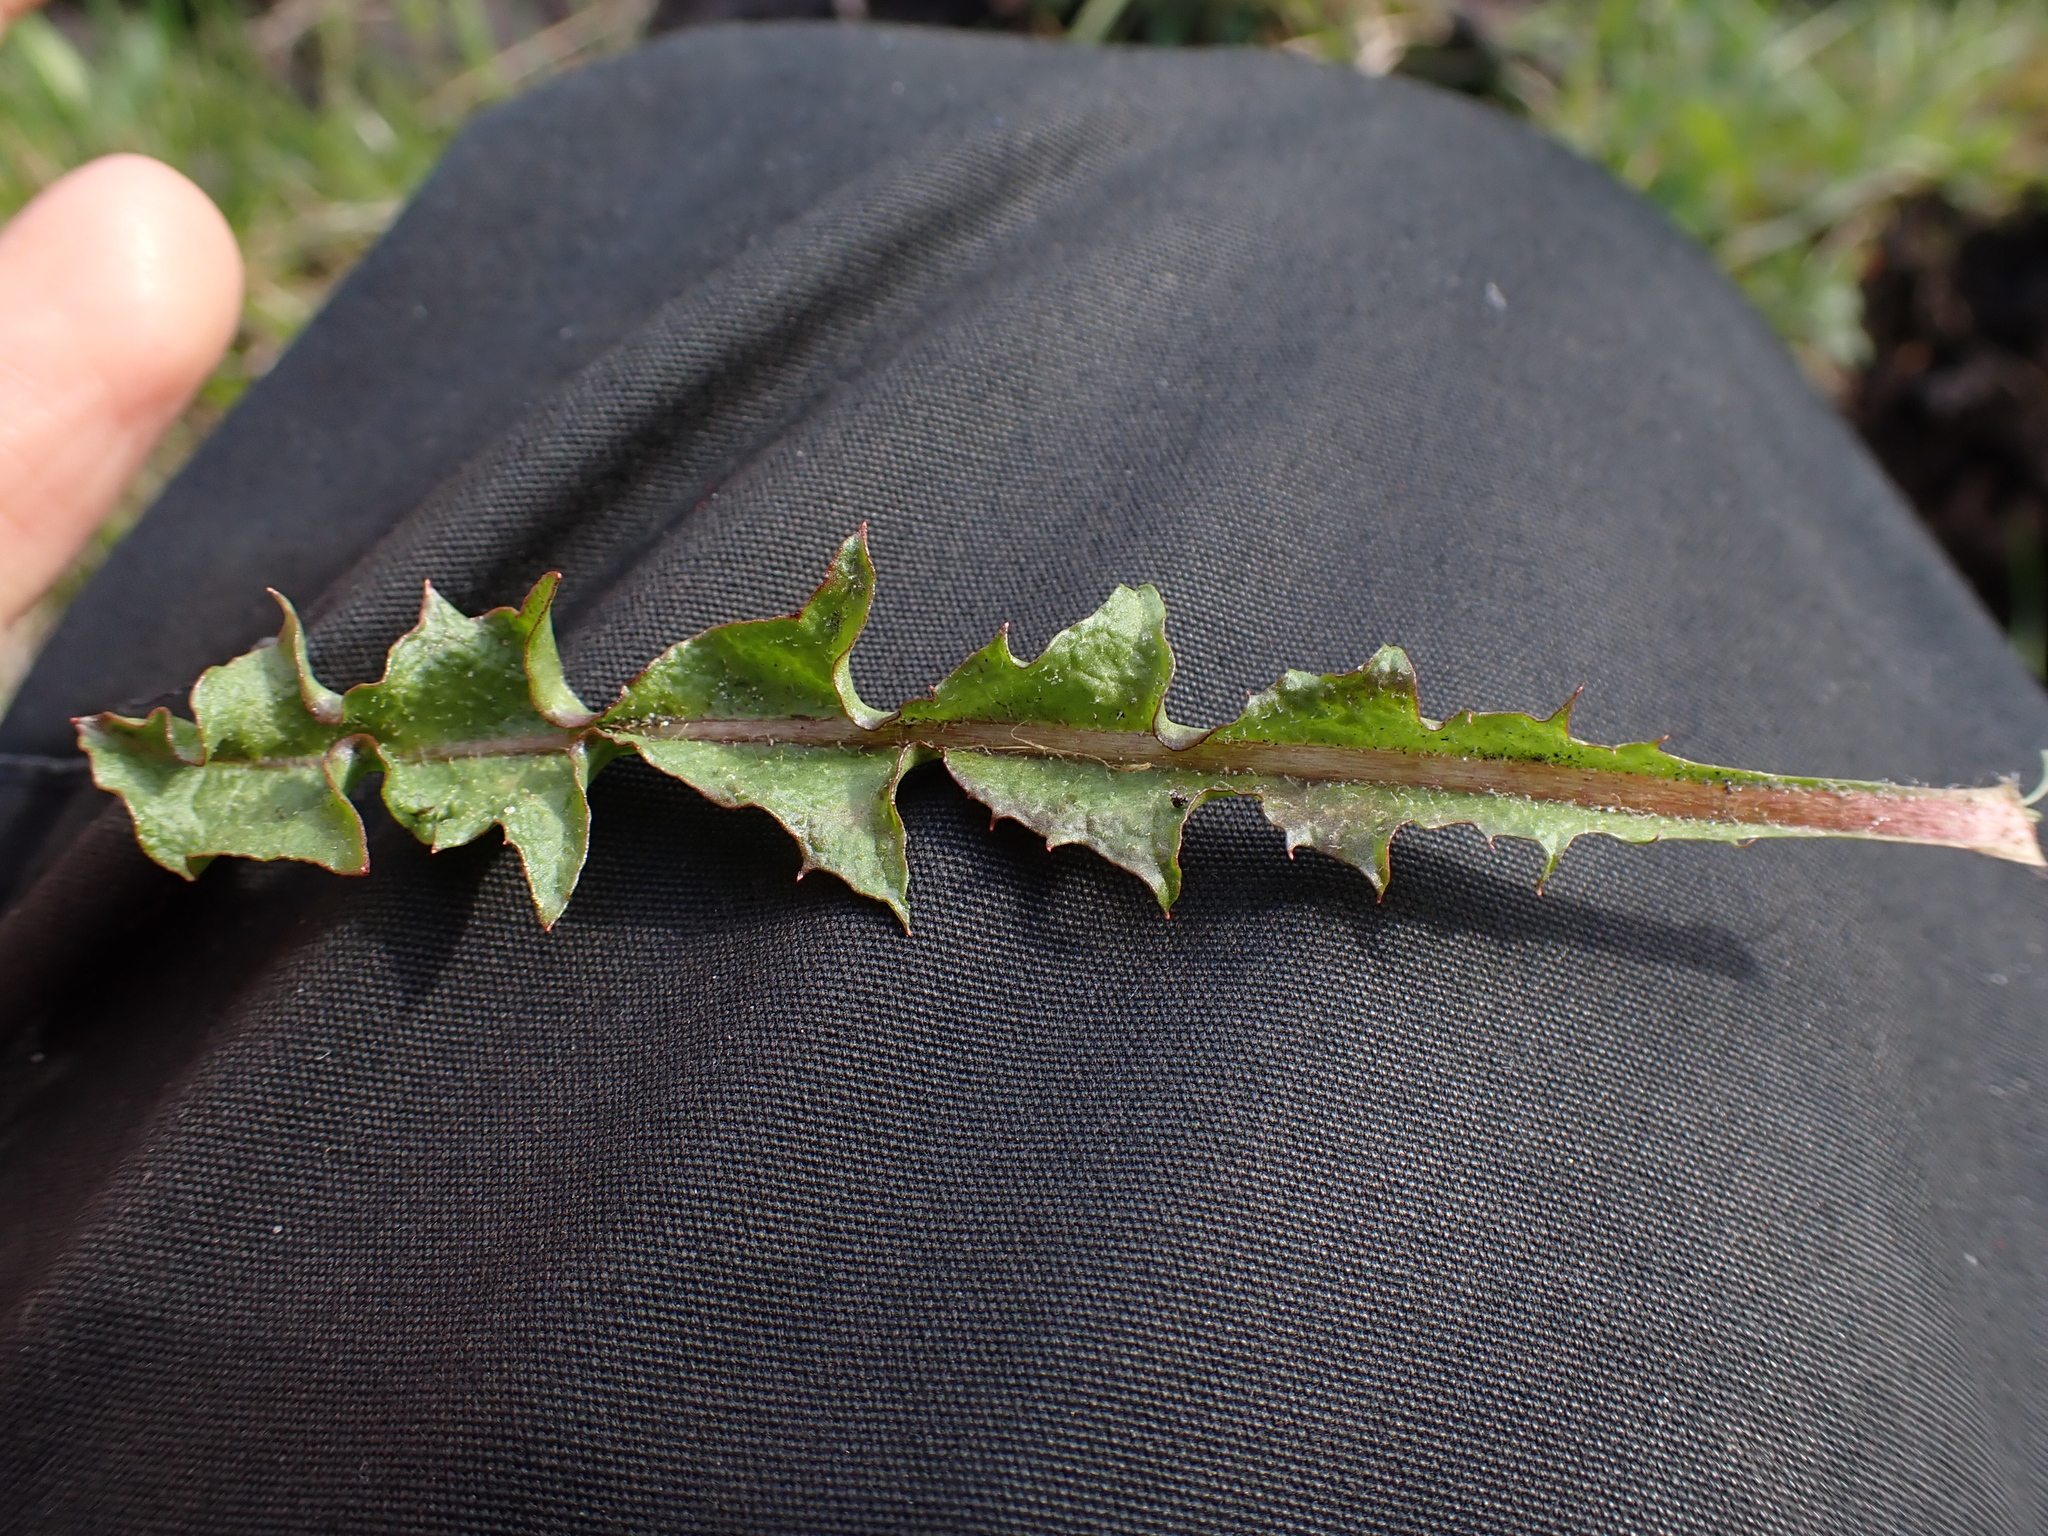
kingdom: Plantae
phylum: Tracheophyta
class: Magnoliopsida
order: Asterales
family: Asteraceae
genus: Taraxacum
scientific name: Taraxacum faeroense
